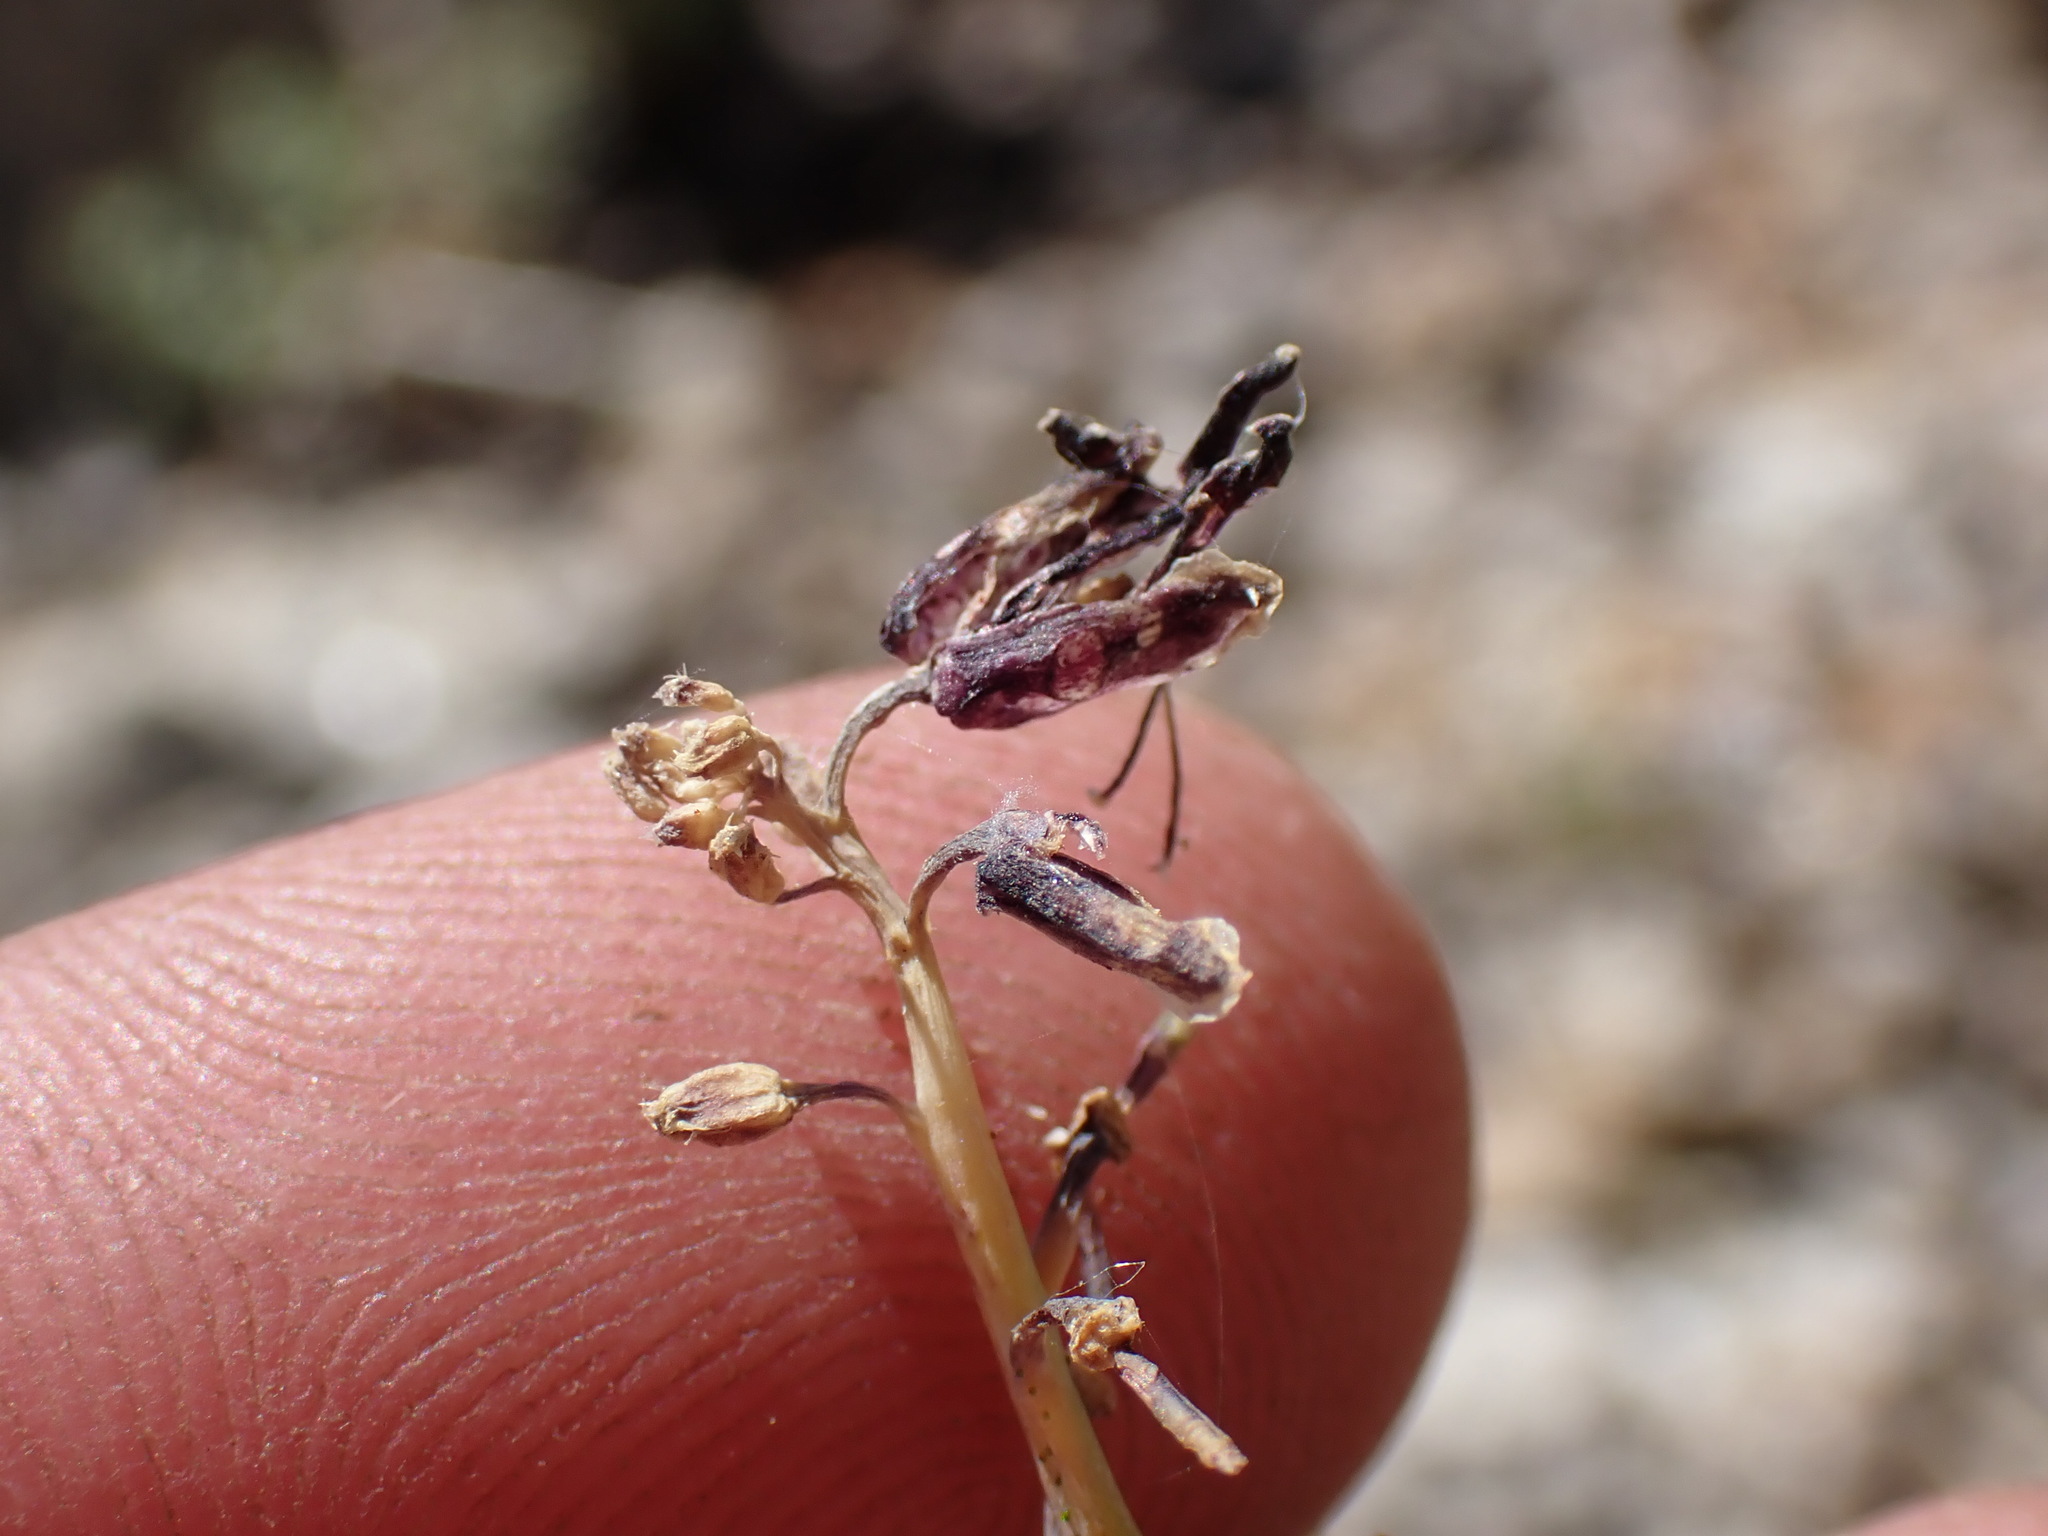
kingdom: Plantae
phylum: Tracheophyta
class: Magnoliopsida
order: Brassicales
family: Brassicaceae
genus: Streptanthus
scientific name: Streptanthus cordatus
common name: Heart-leaf jewel-flower
